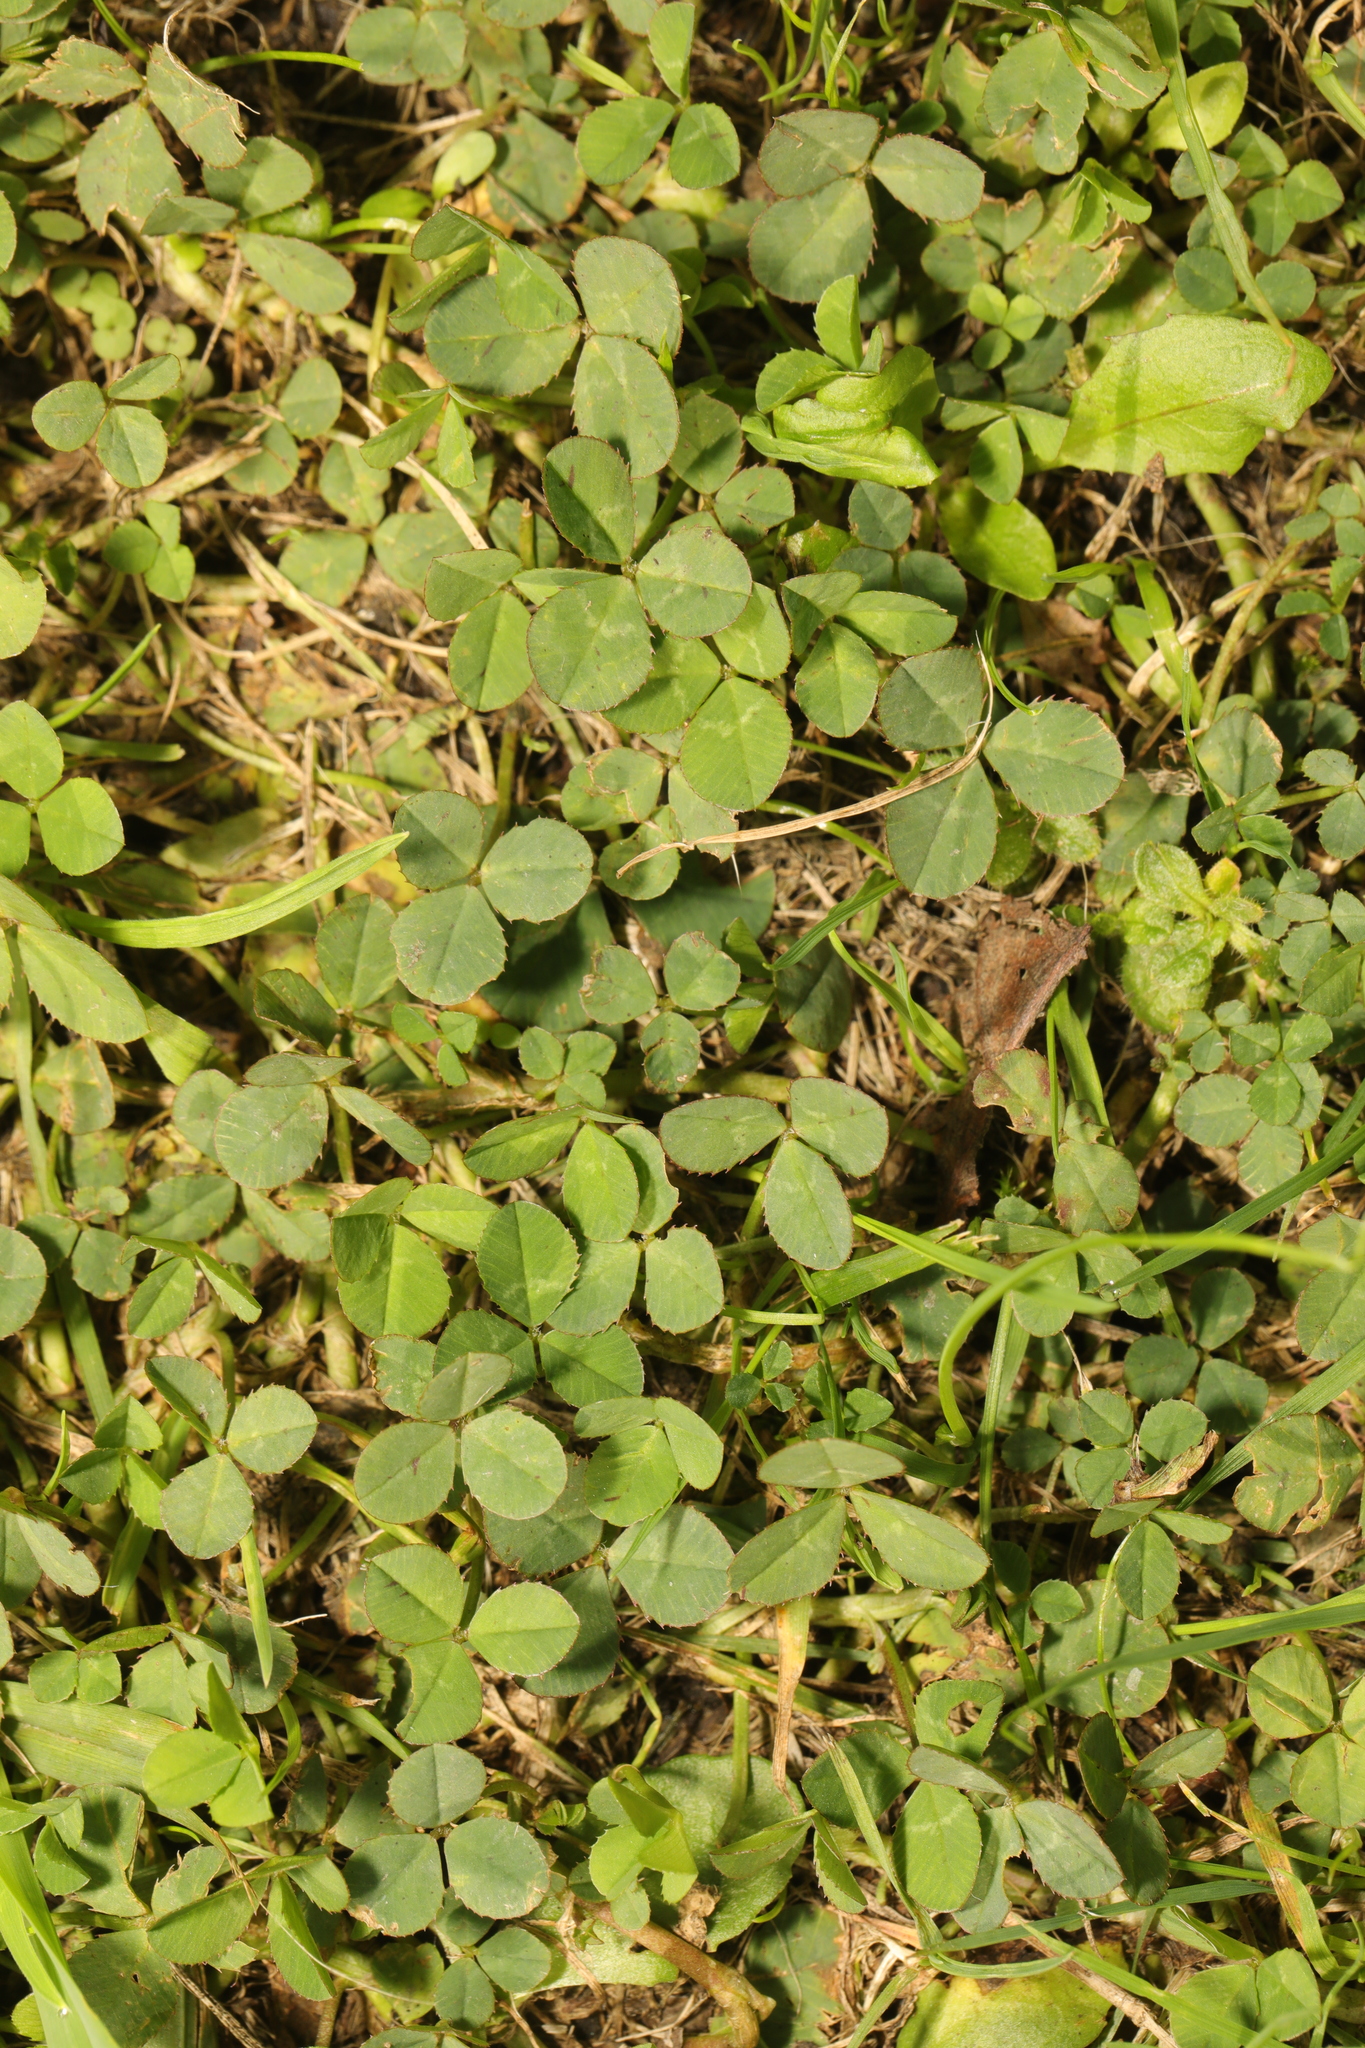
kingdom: Plantae
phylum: Tracheophyta
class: Magnoliopsida
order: Fabales
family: Fabaceae
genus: Trifolium
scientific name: Trifolium repens
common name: White clover
